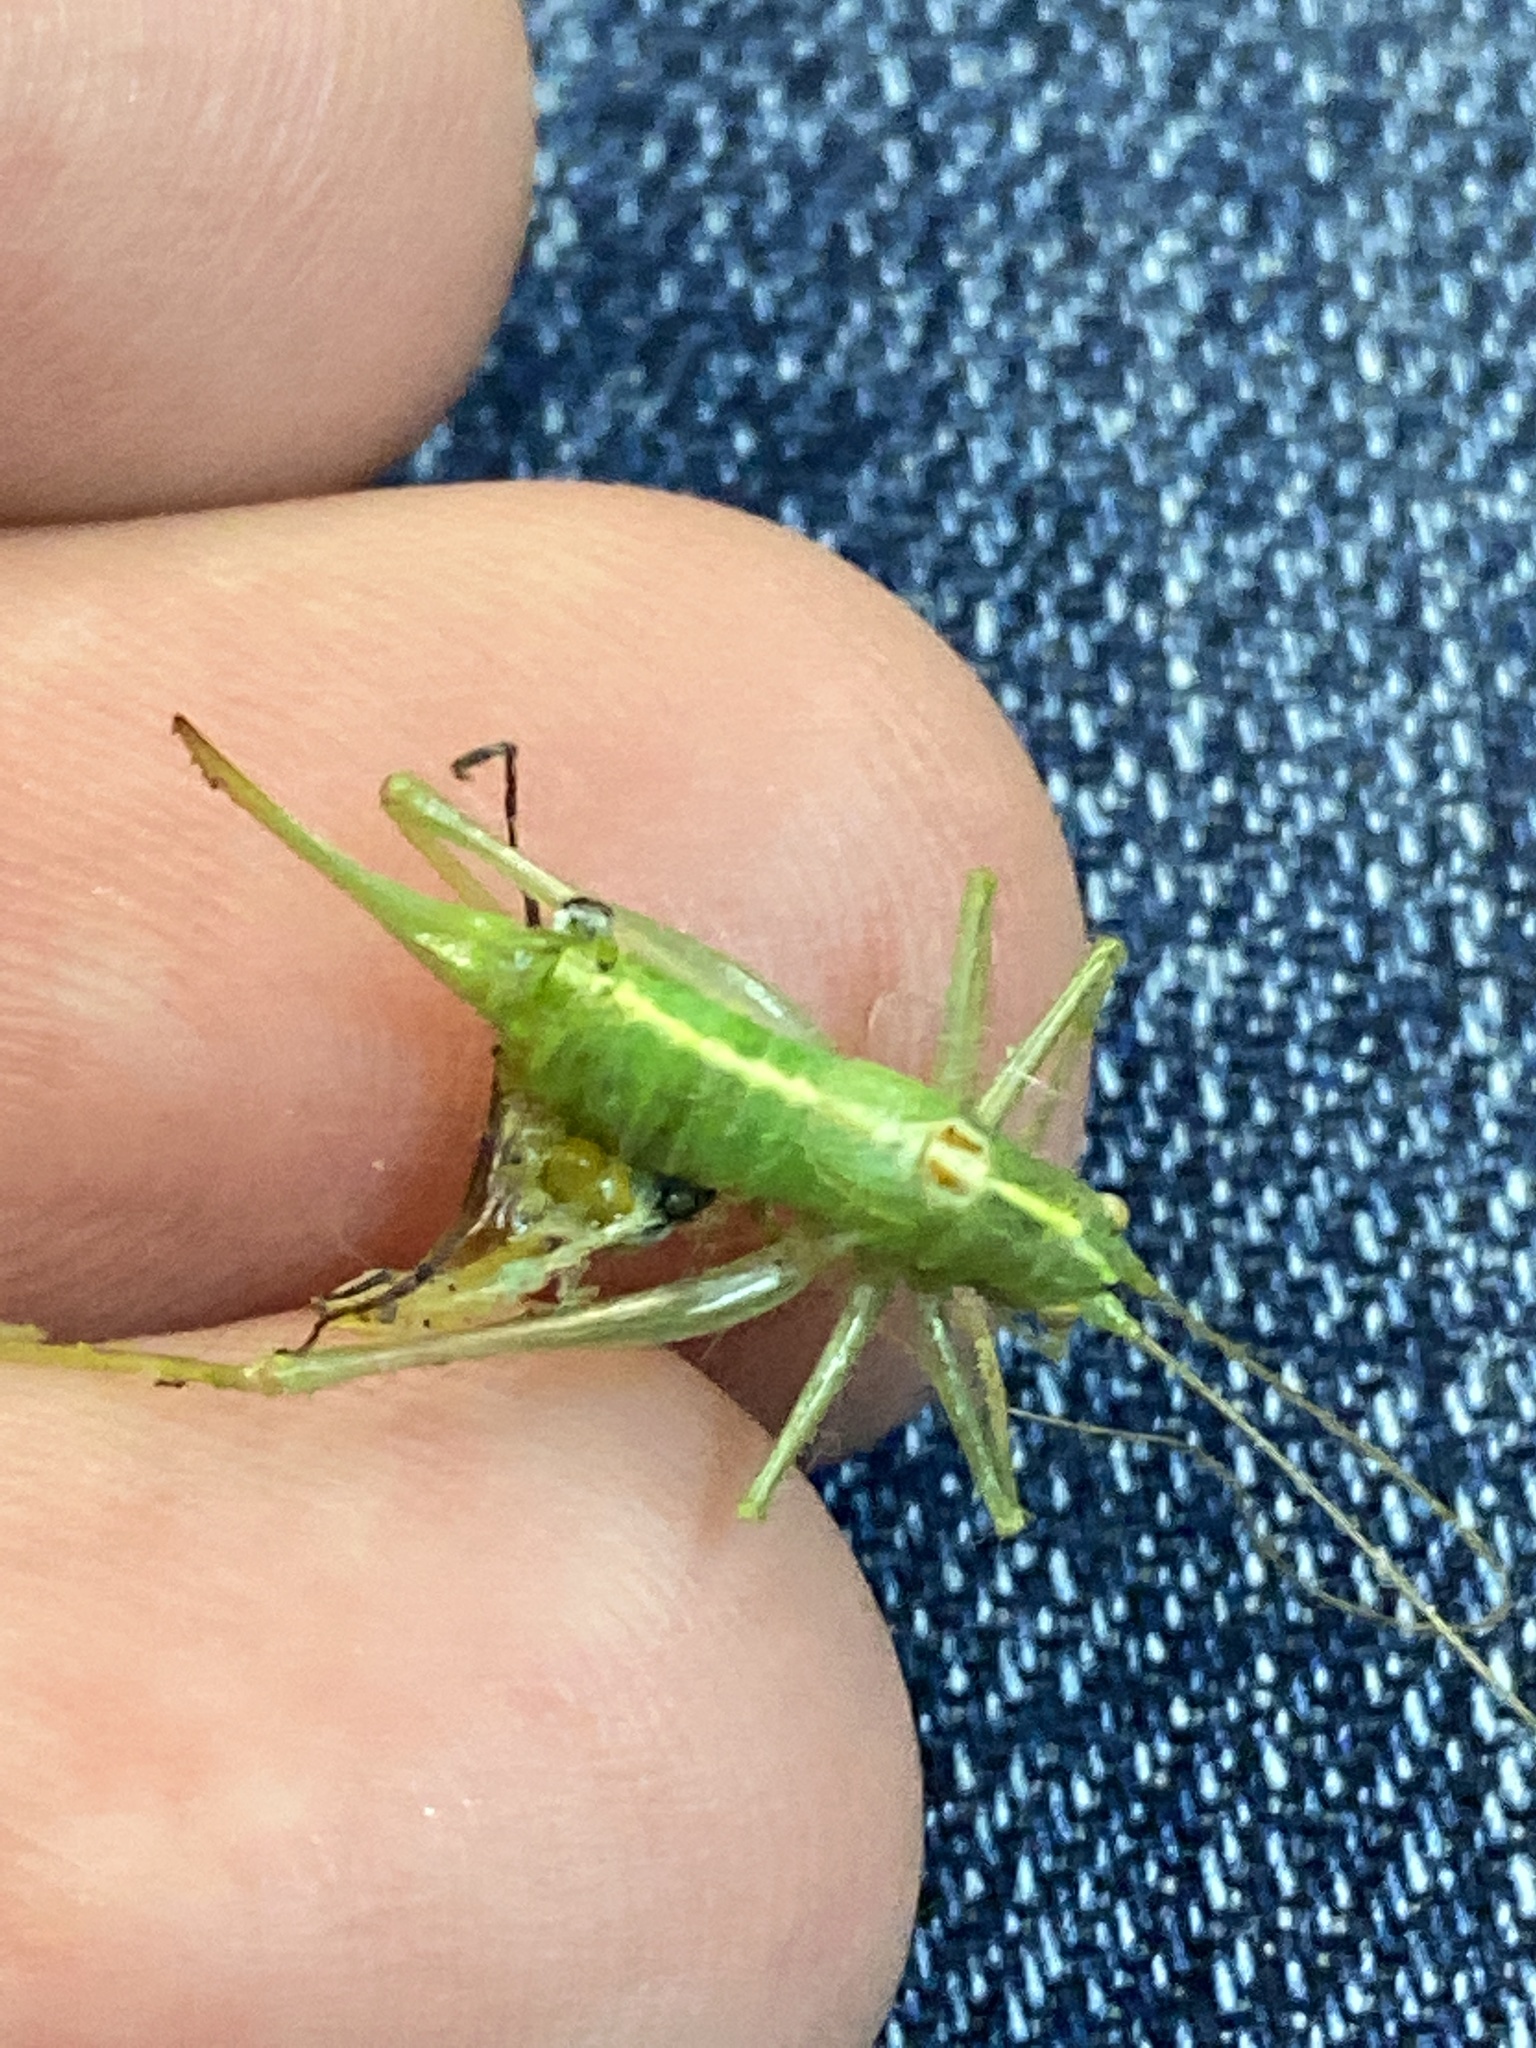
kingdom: Animalia
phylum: Arthropoda
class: Insecta
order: Orthoptera
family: Tettigoniidae
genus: Meconema
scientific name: Meconema meridionale
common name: Southern oak bush-cricket
